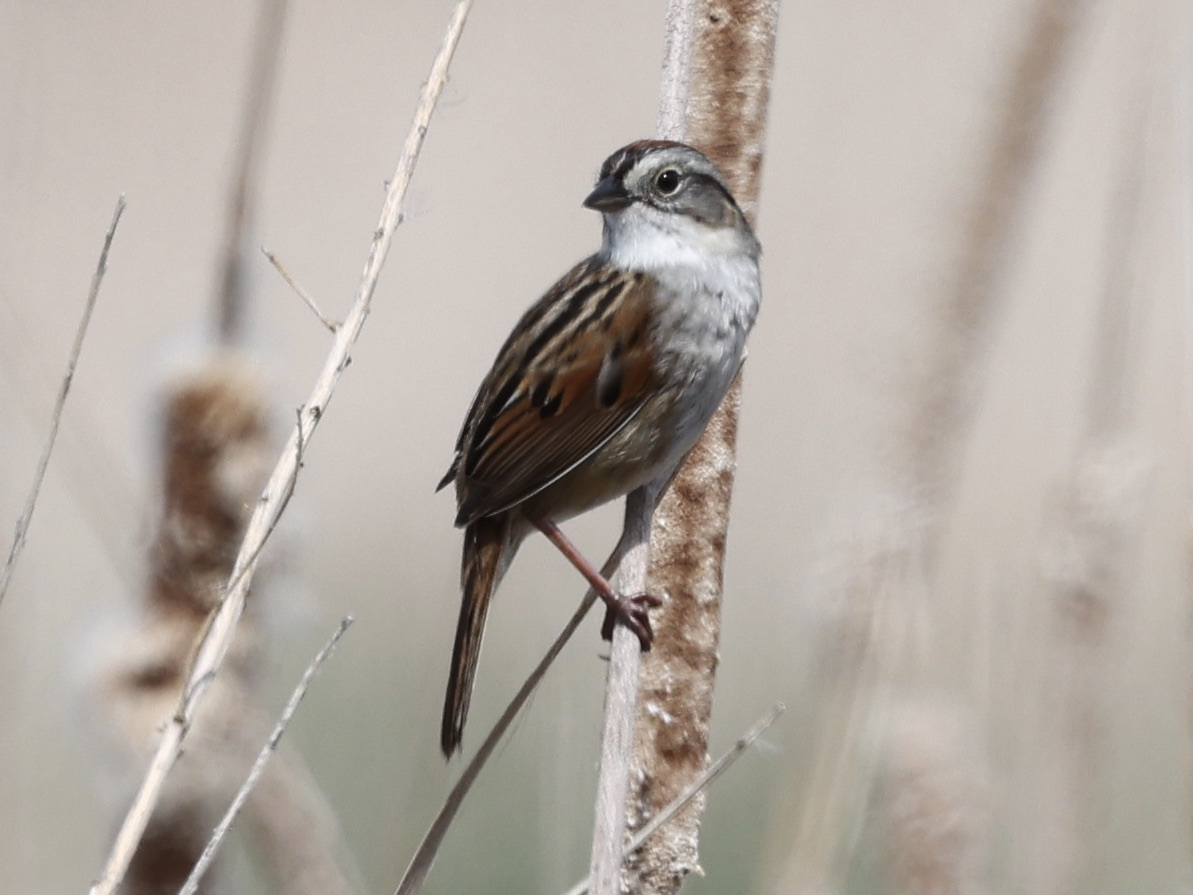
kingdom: Animalia
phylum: Chordata
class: Aves
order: Passeriformes
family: Passerellidae
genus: Melospiza
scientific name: Melospiza georgiana
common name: Swamp sparrow
